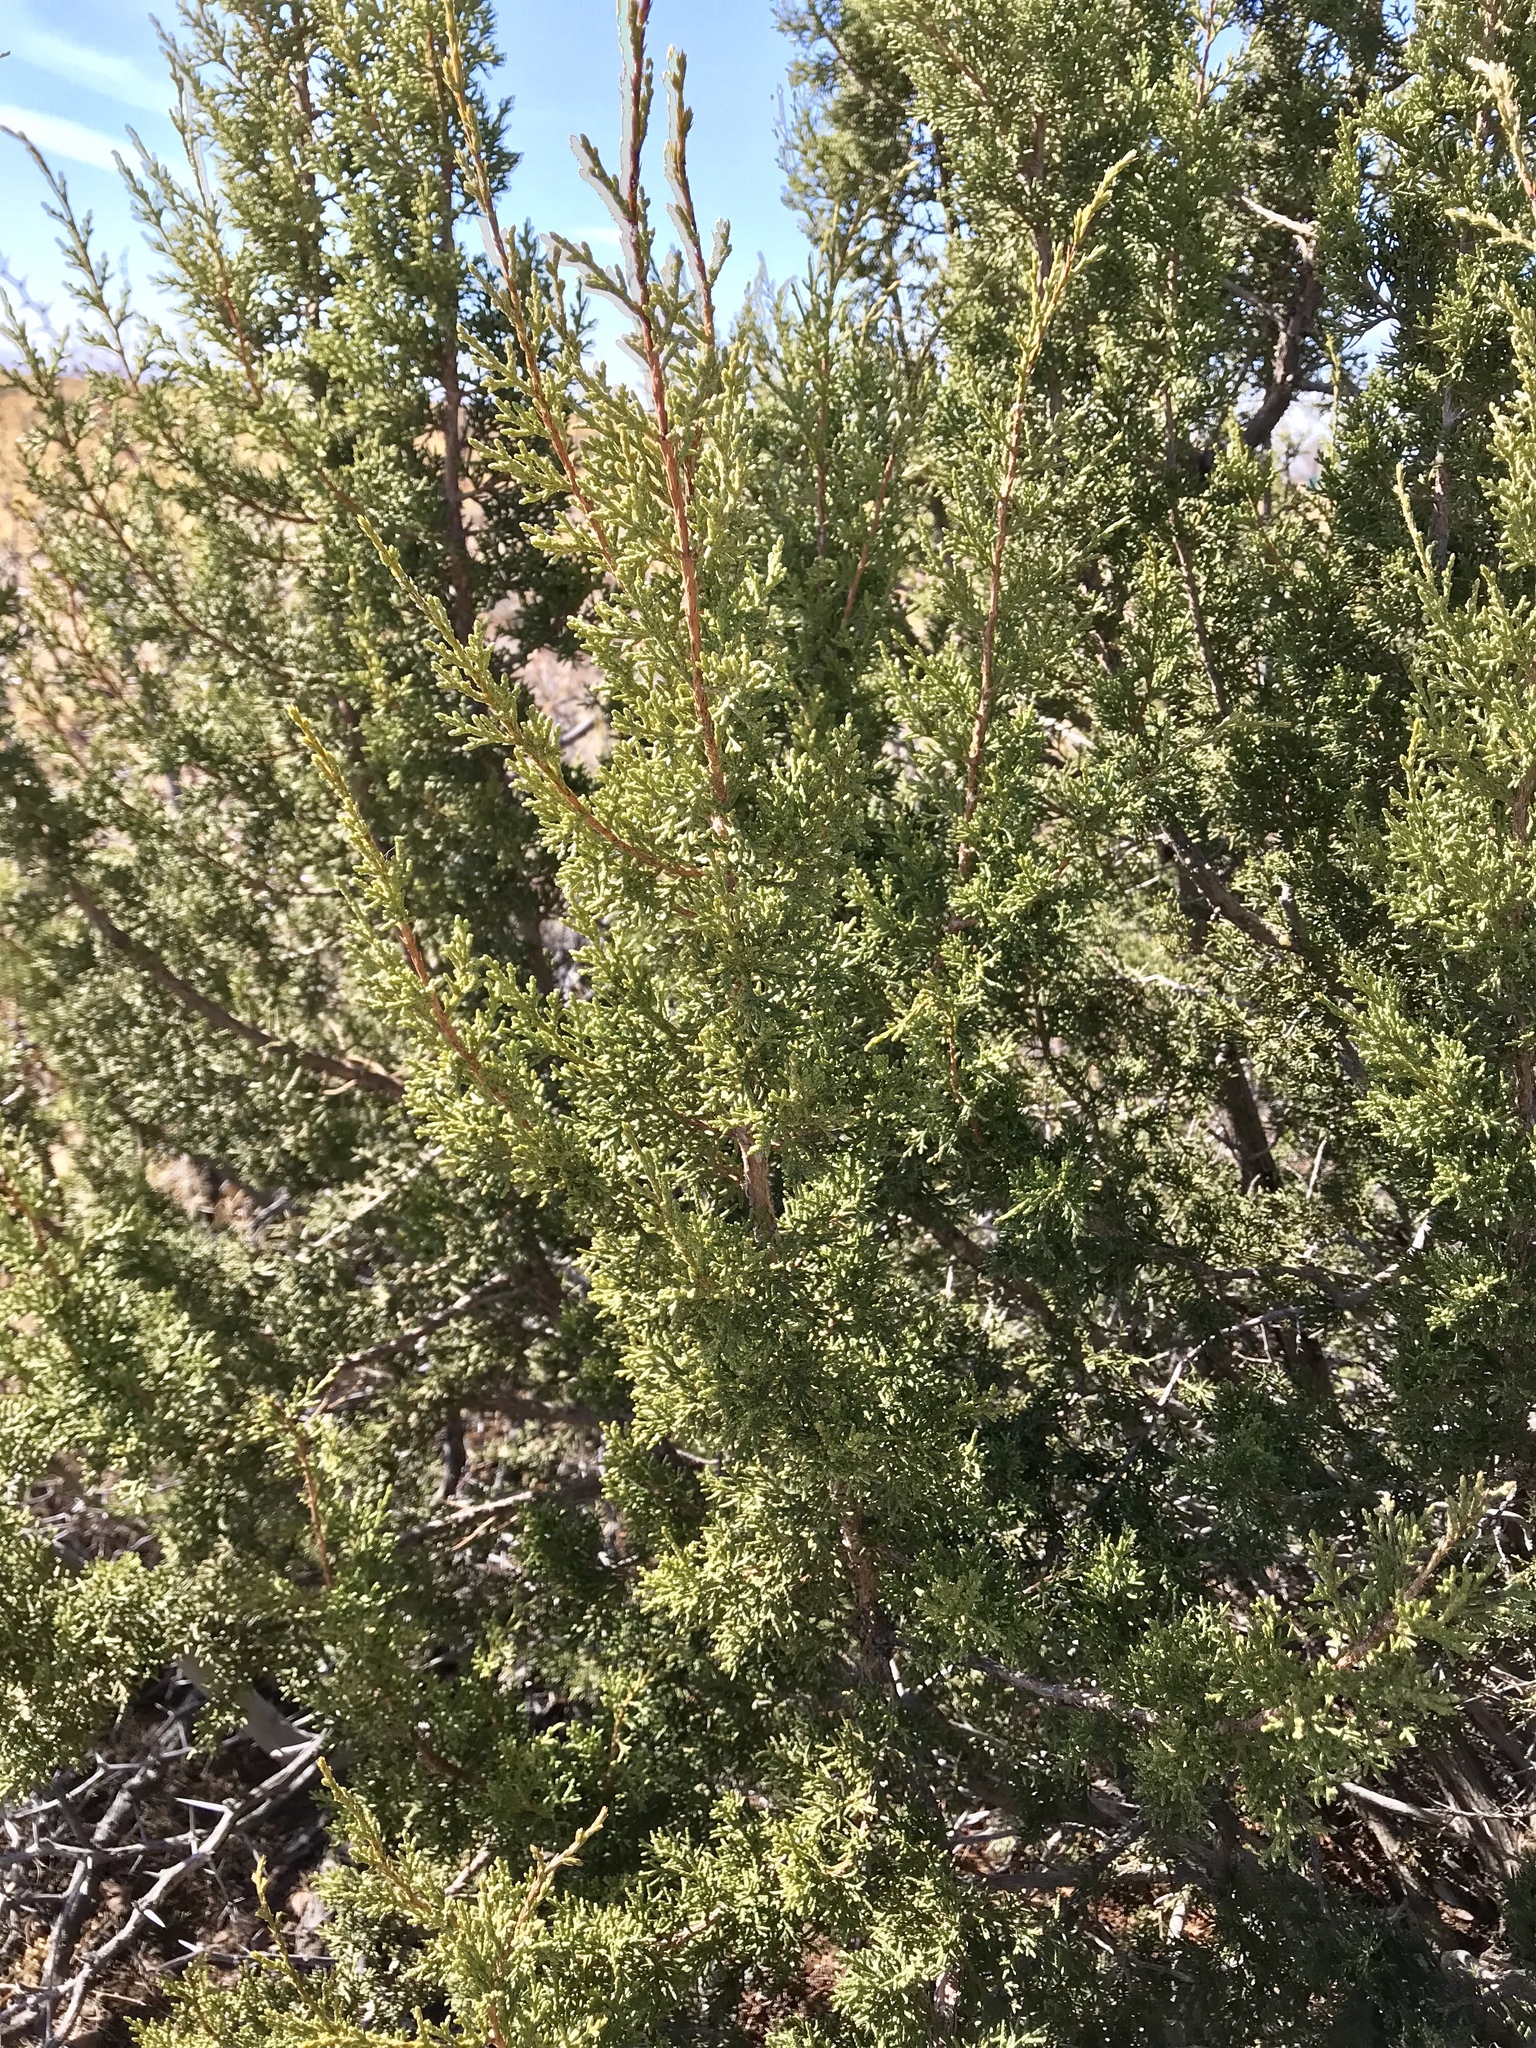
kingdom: Plantae
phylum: Tracheophyta
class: Pinopsida
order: Pinales
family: Cupressaceae
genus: Juniperus
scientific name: Juniperus arizonica
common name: Arizona juniper
